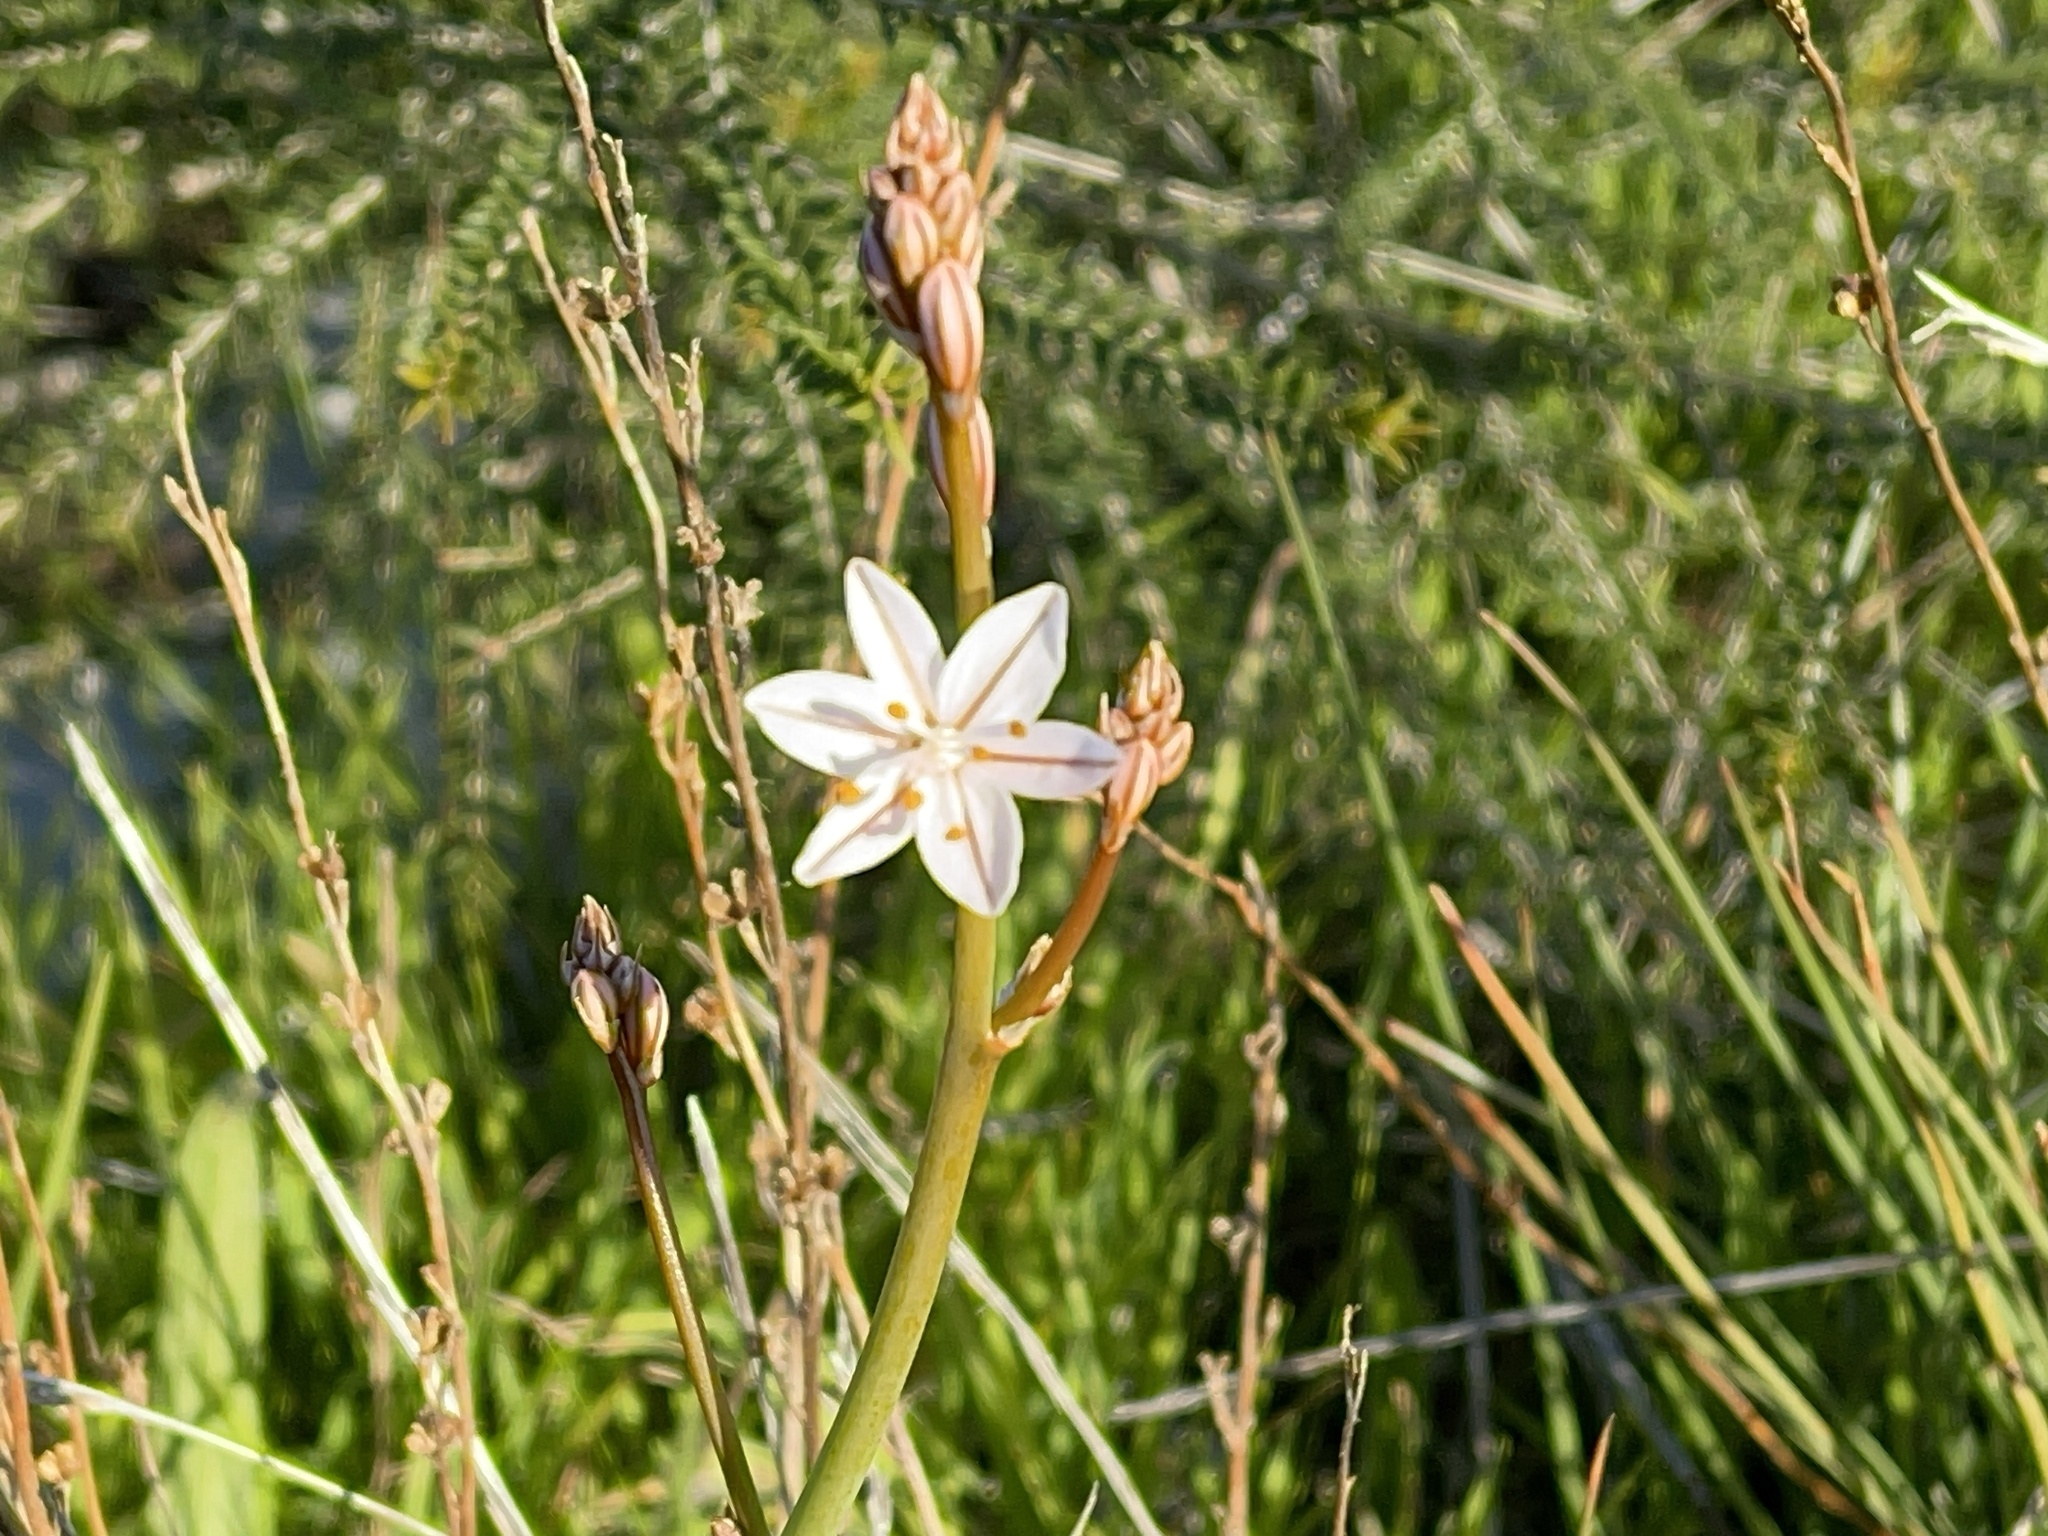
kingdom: Plantae
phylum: Tracheophyta
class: Liliopsida
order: Asparagales
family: Asphodelaceae
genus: Asphodelus
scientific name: Asphodelus fistulosus
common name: Onionweed
